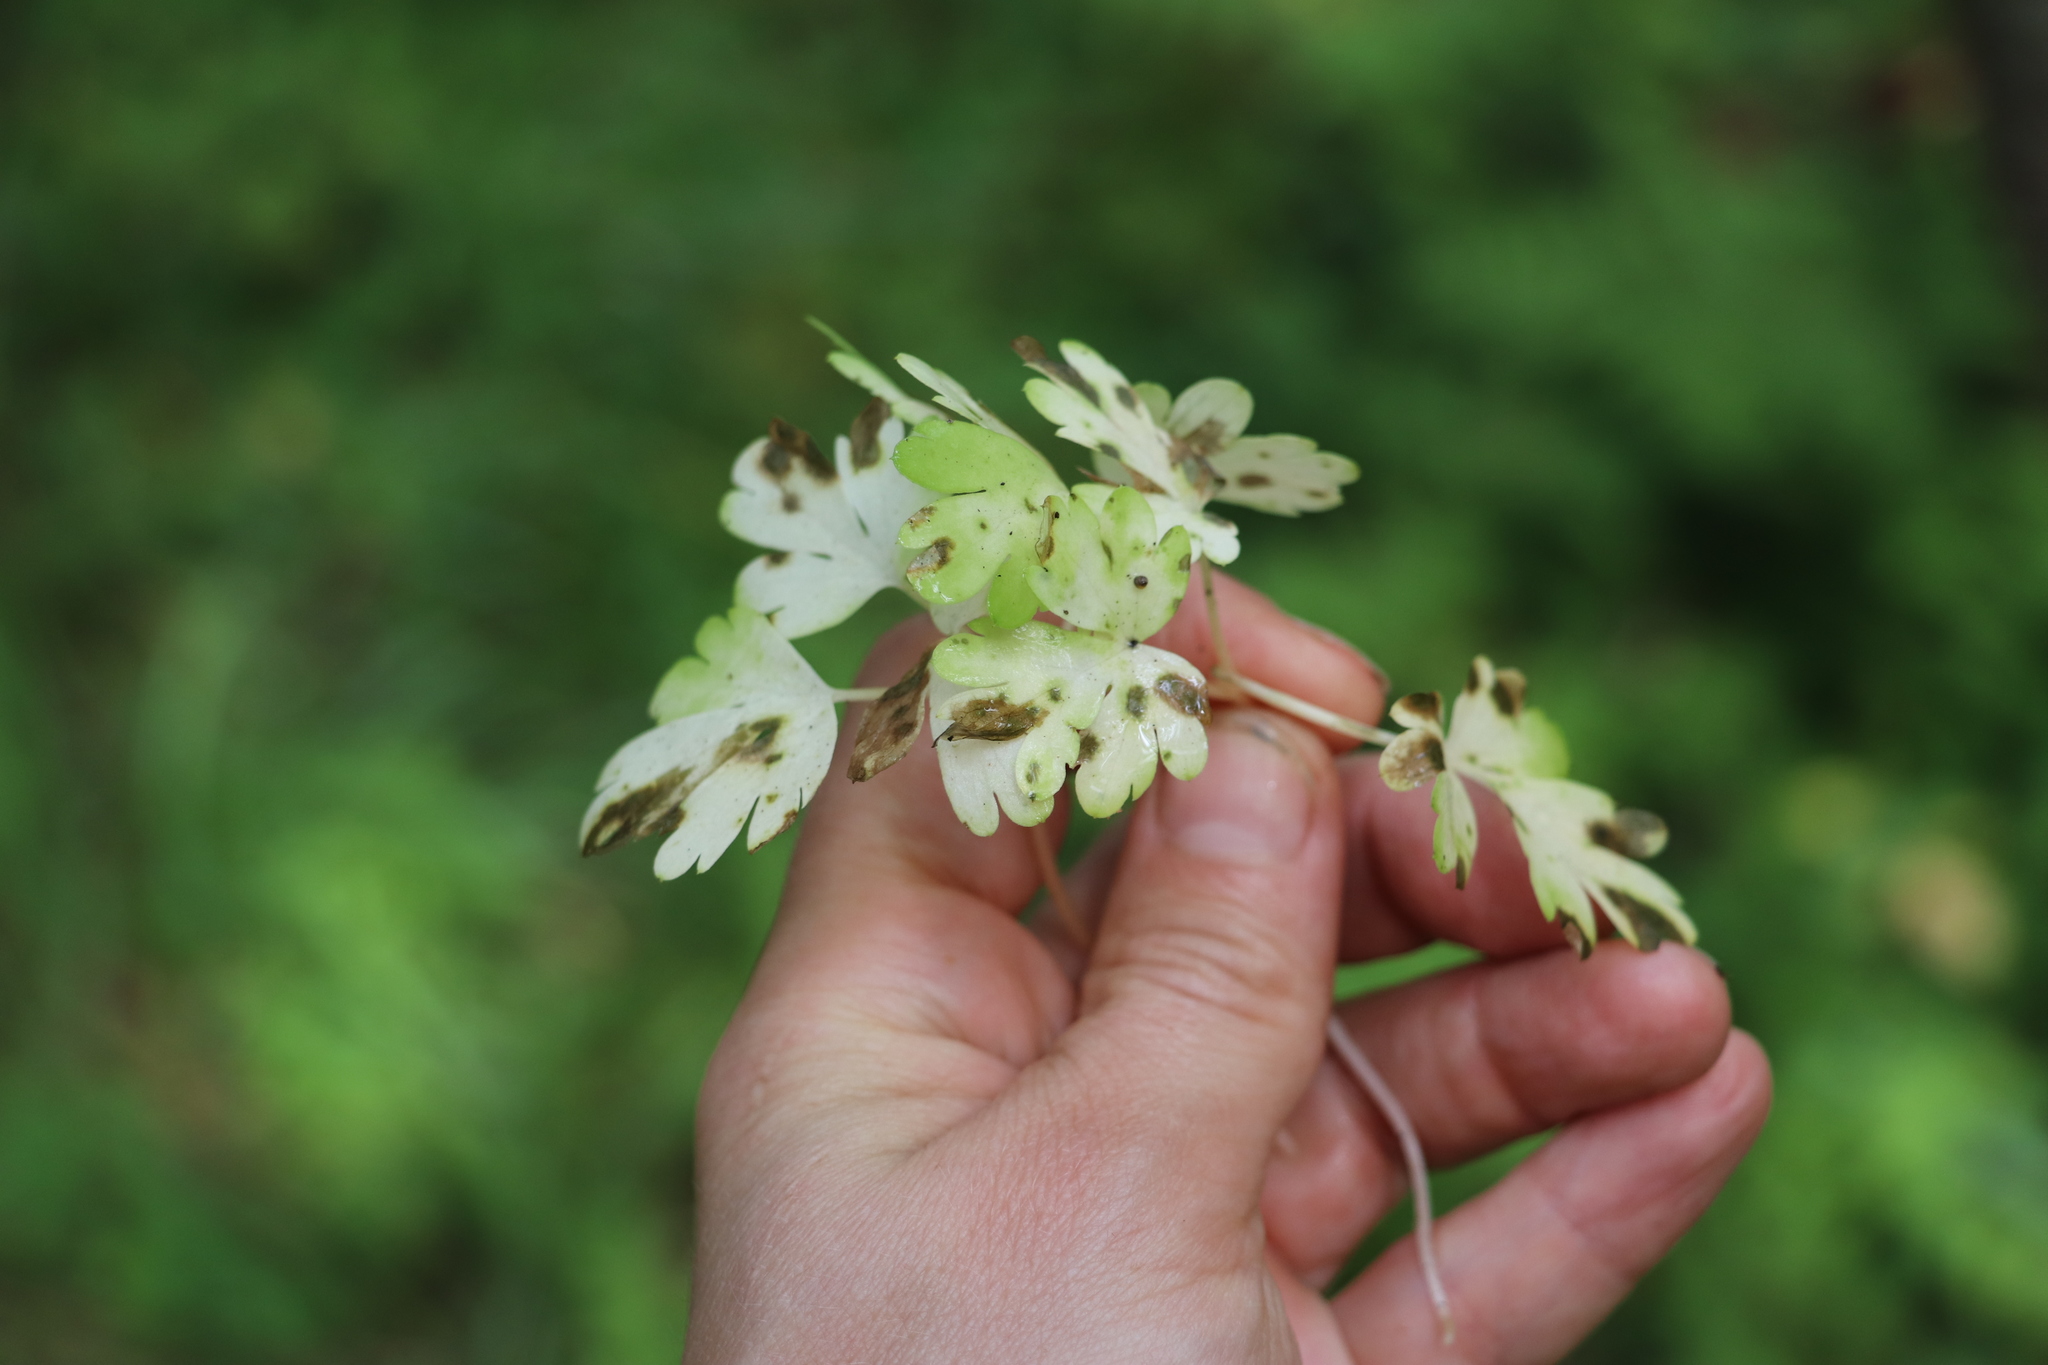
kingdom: Plantae
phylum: Tracheophyta
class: Magnoliopsida
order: Dipsacales
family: Viburnaceae
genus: Adoxa
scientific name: Adoxa moschatellina
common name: Moschatel
